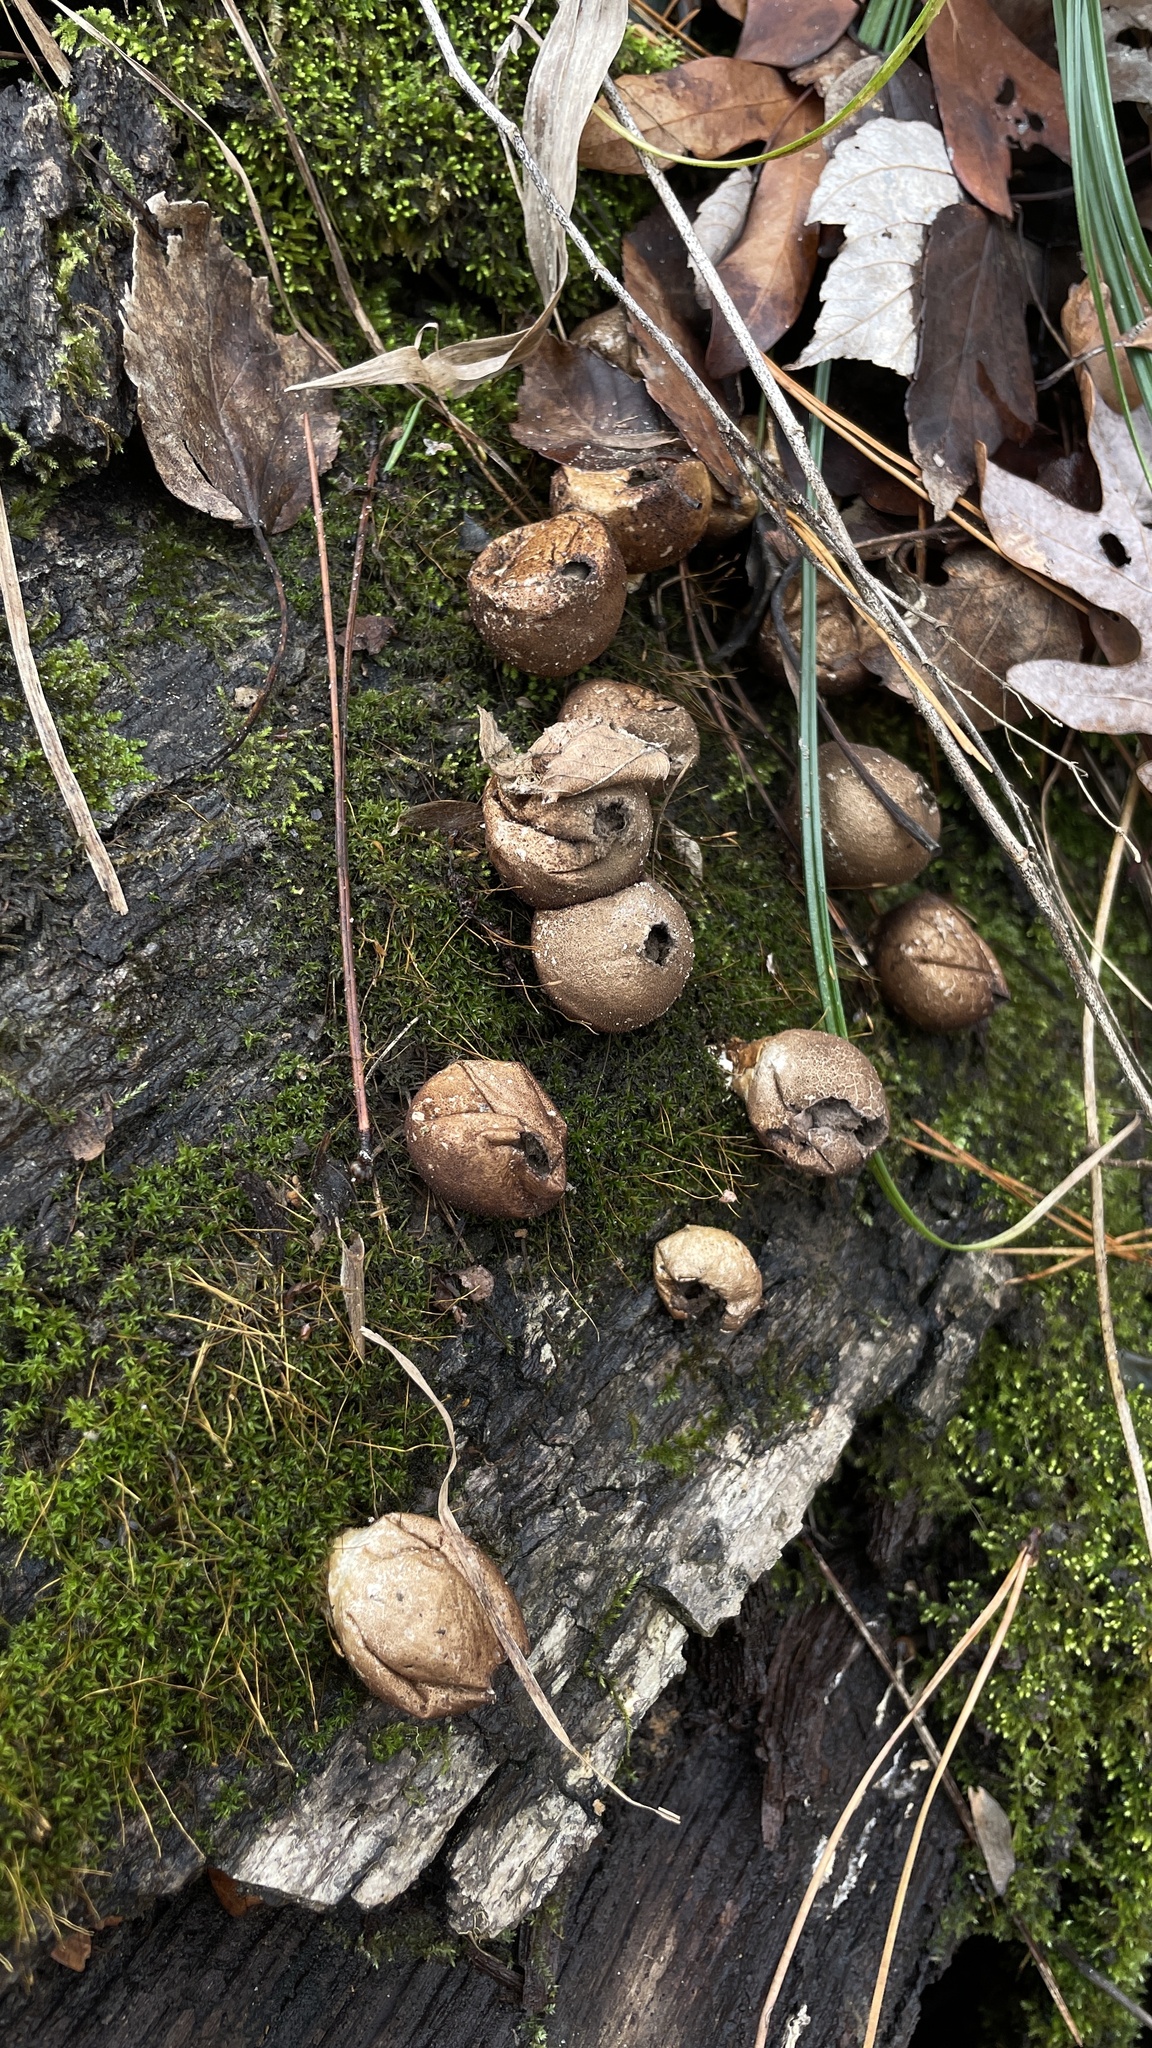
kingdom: Fungi
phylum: Basidiomycota
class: Agaricomycetes
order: Agaricales
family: Lycoperdaceae
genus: Apioperdon
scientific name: Apioperdon pyriforme
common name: Pear-shaped puffball
